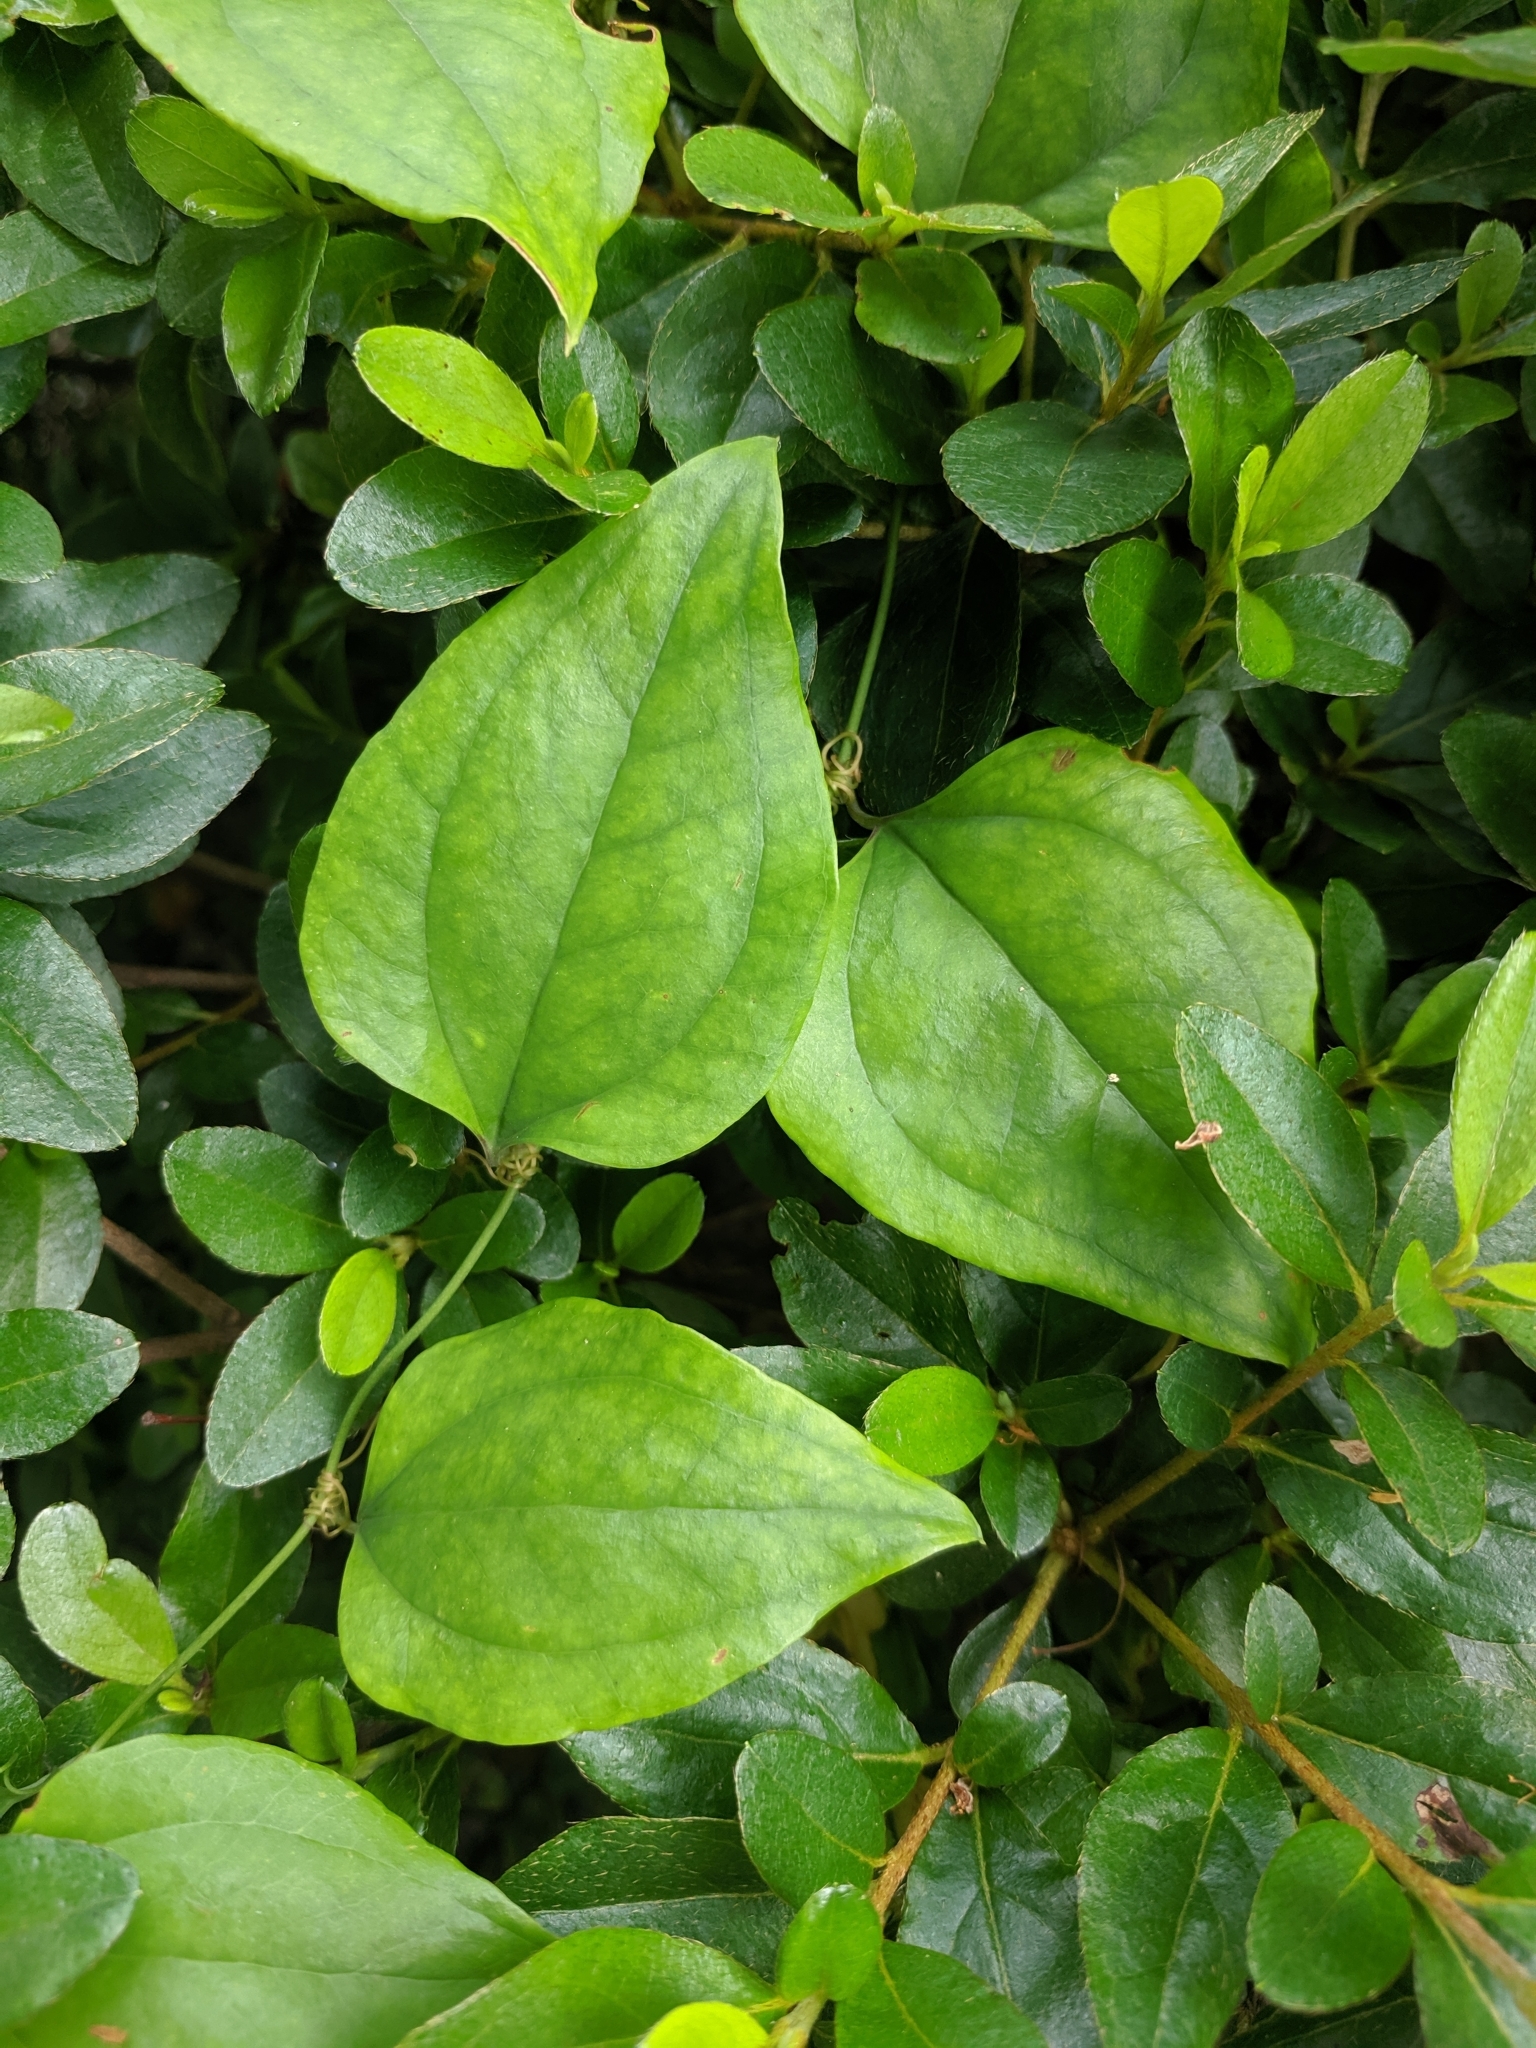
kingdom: Plantae
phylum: Tracheophyta
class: Liliopsida
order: Liliales
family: Smilacaceae
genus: Smilax
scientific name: Smilax glauca
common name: Cat greenbrier
